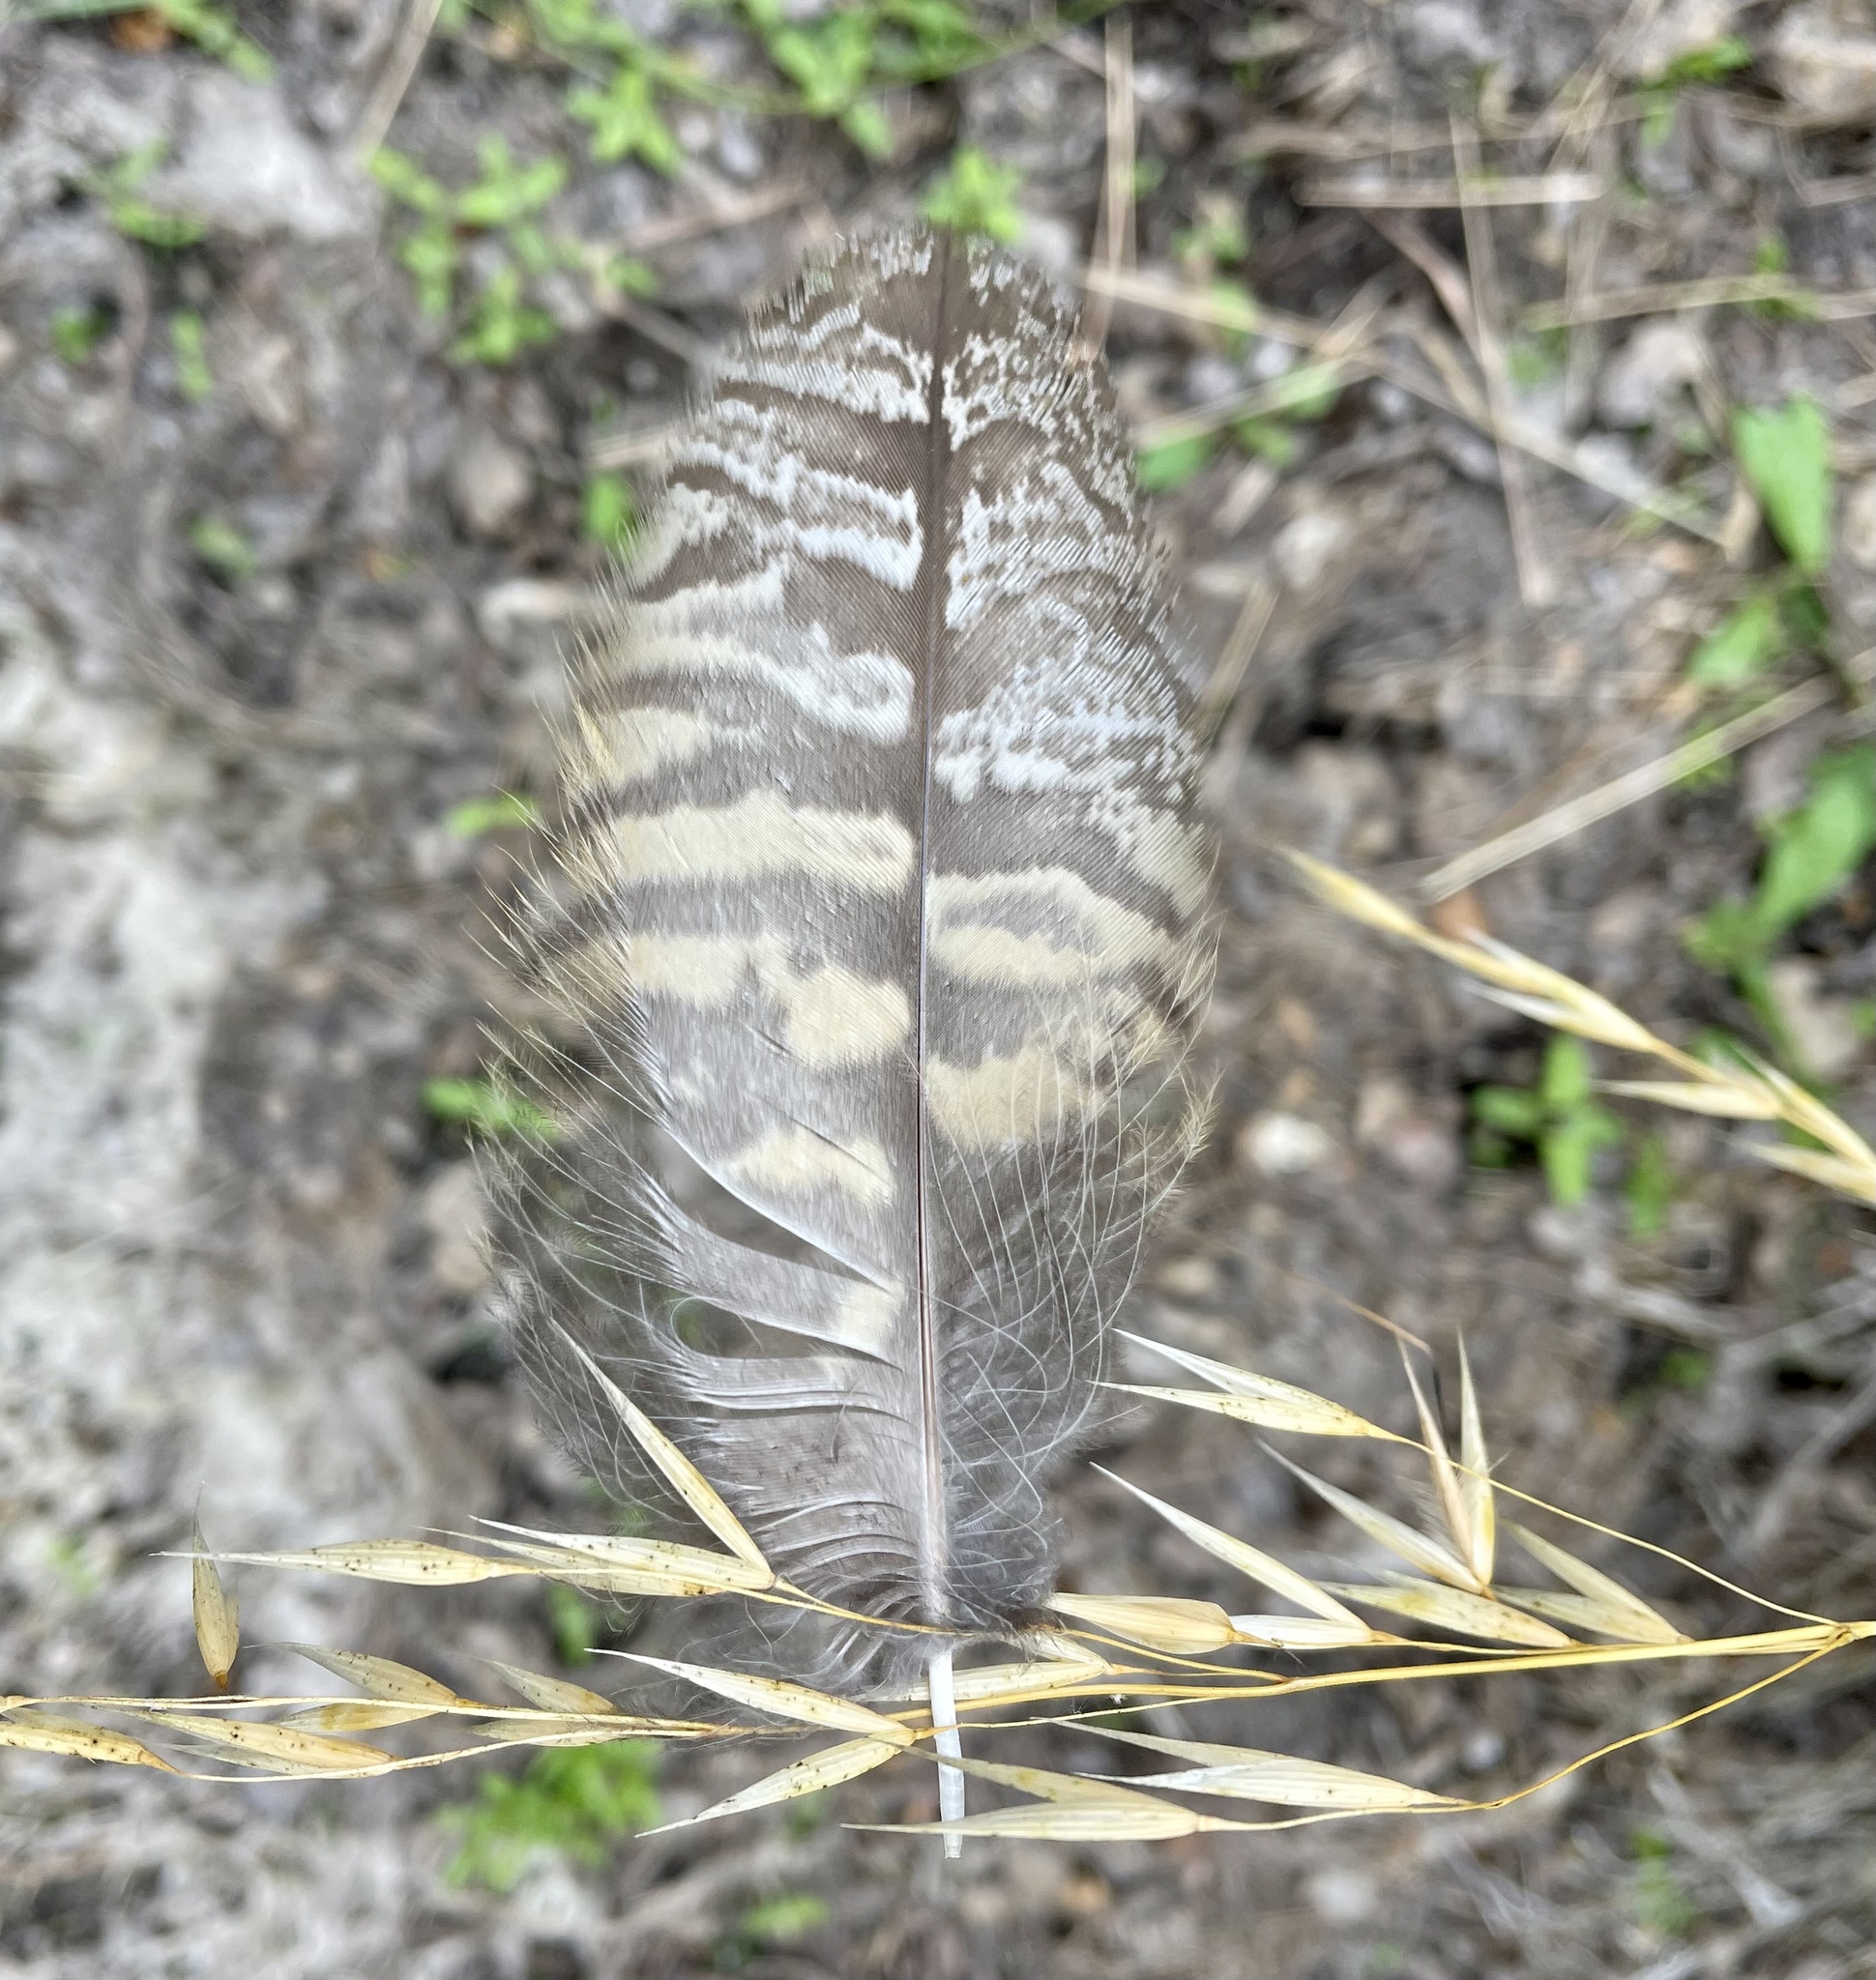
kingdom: Animalia
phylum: Chordata
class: Aves
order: Strigiformes
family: Strigidae
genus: Bubo
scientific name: Bubo virginianus
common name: Great horned owl
